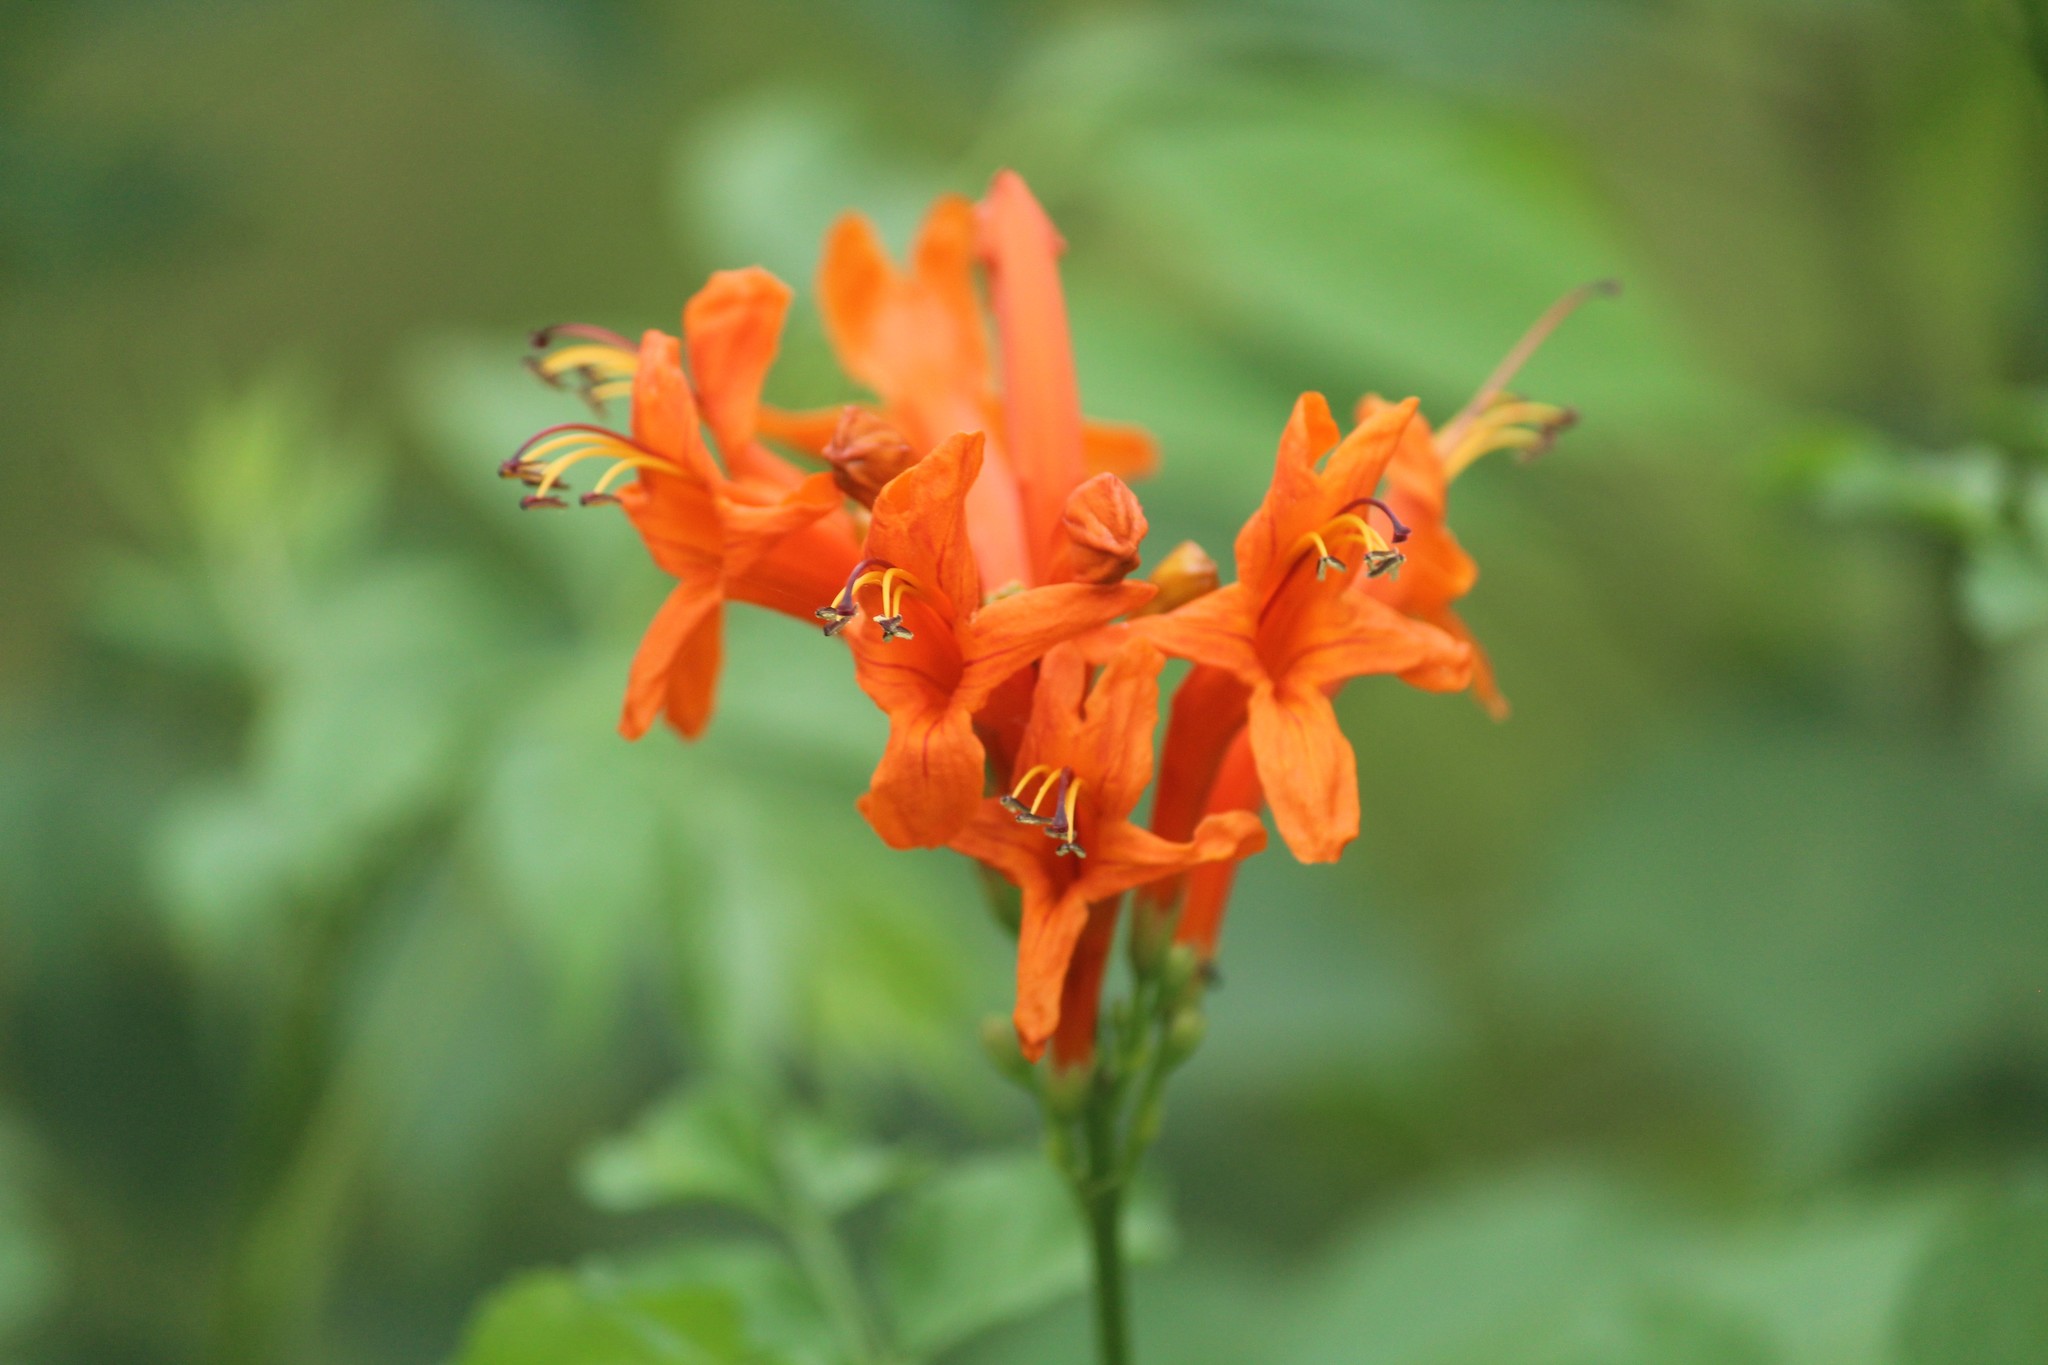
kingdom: Plantae
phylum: Tracheophyta
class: Magnoliopsida
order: Lamiales
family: Bignoniaceae
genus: Tecomaria
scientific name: Tecomaria capensis
